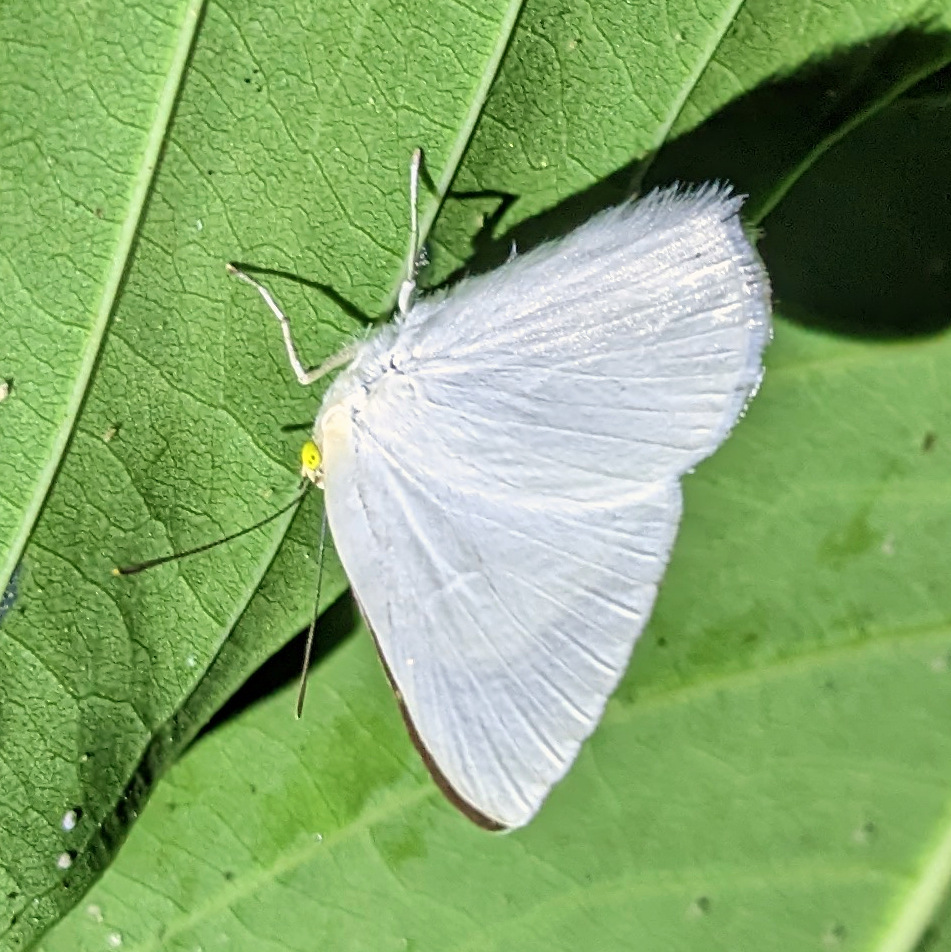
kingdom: Animalia
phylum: Arthropoda
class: Insecta
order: Lepidoptera
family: Nymphalidae
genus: Ethope
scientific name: Ethope
